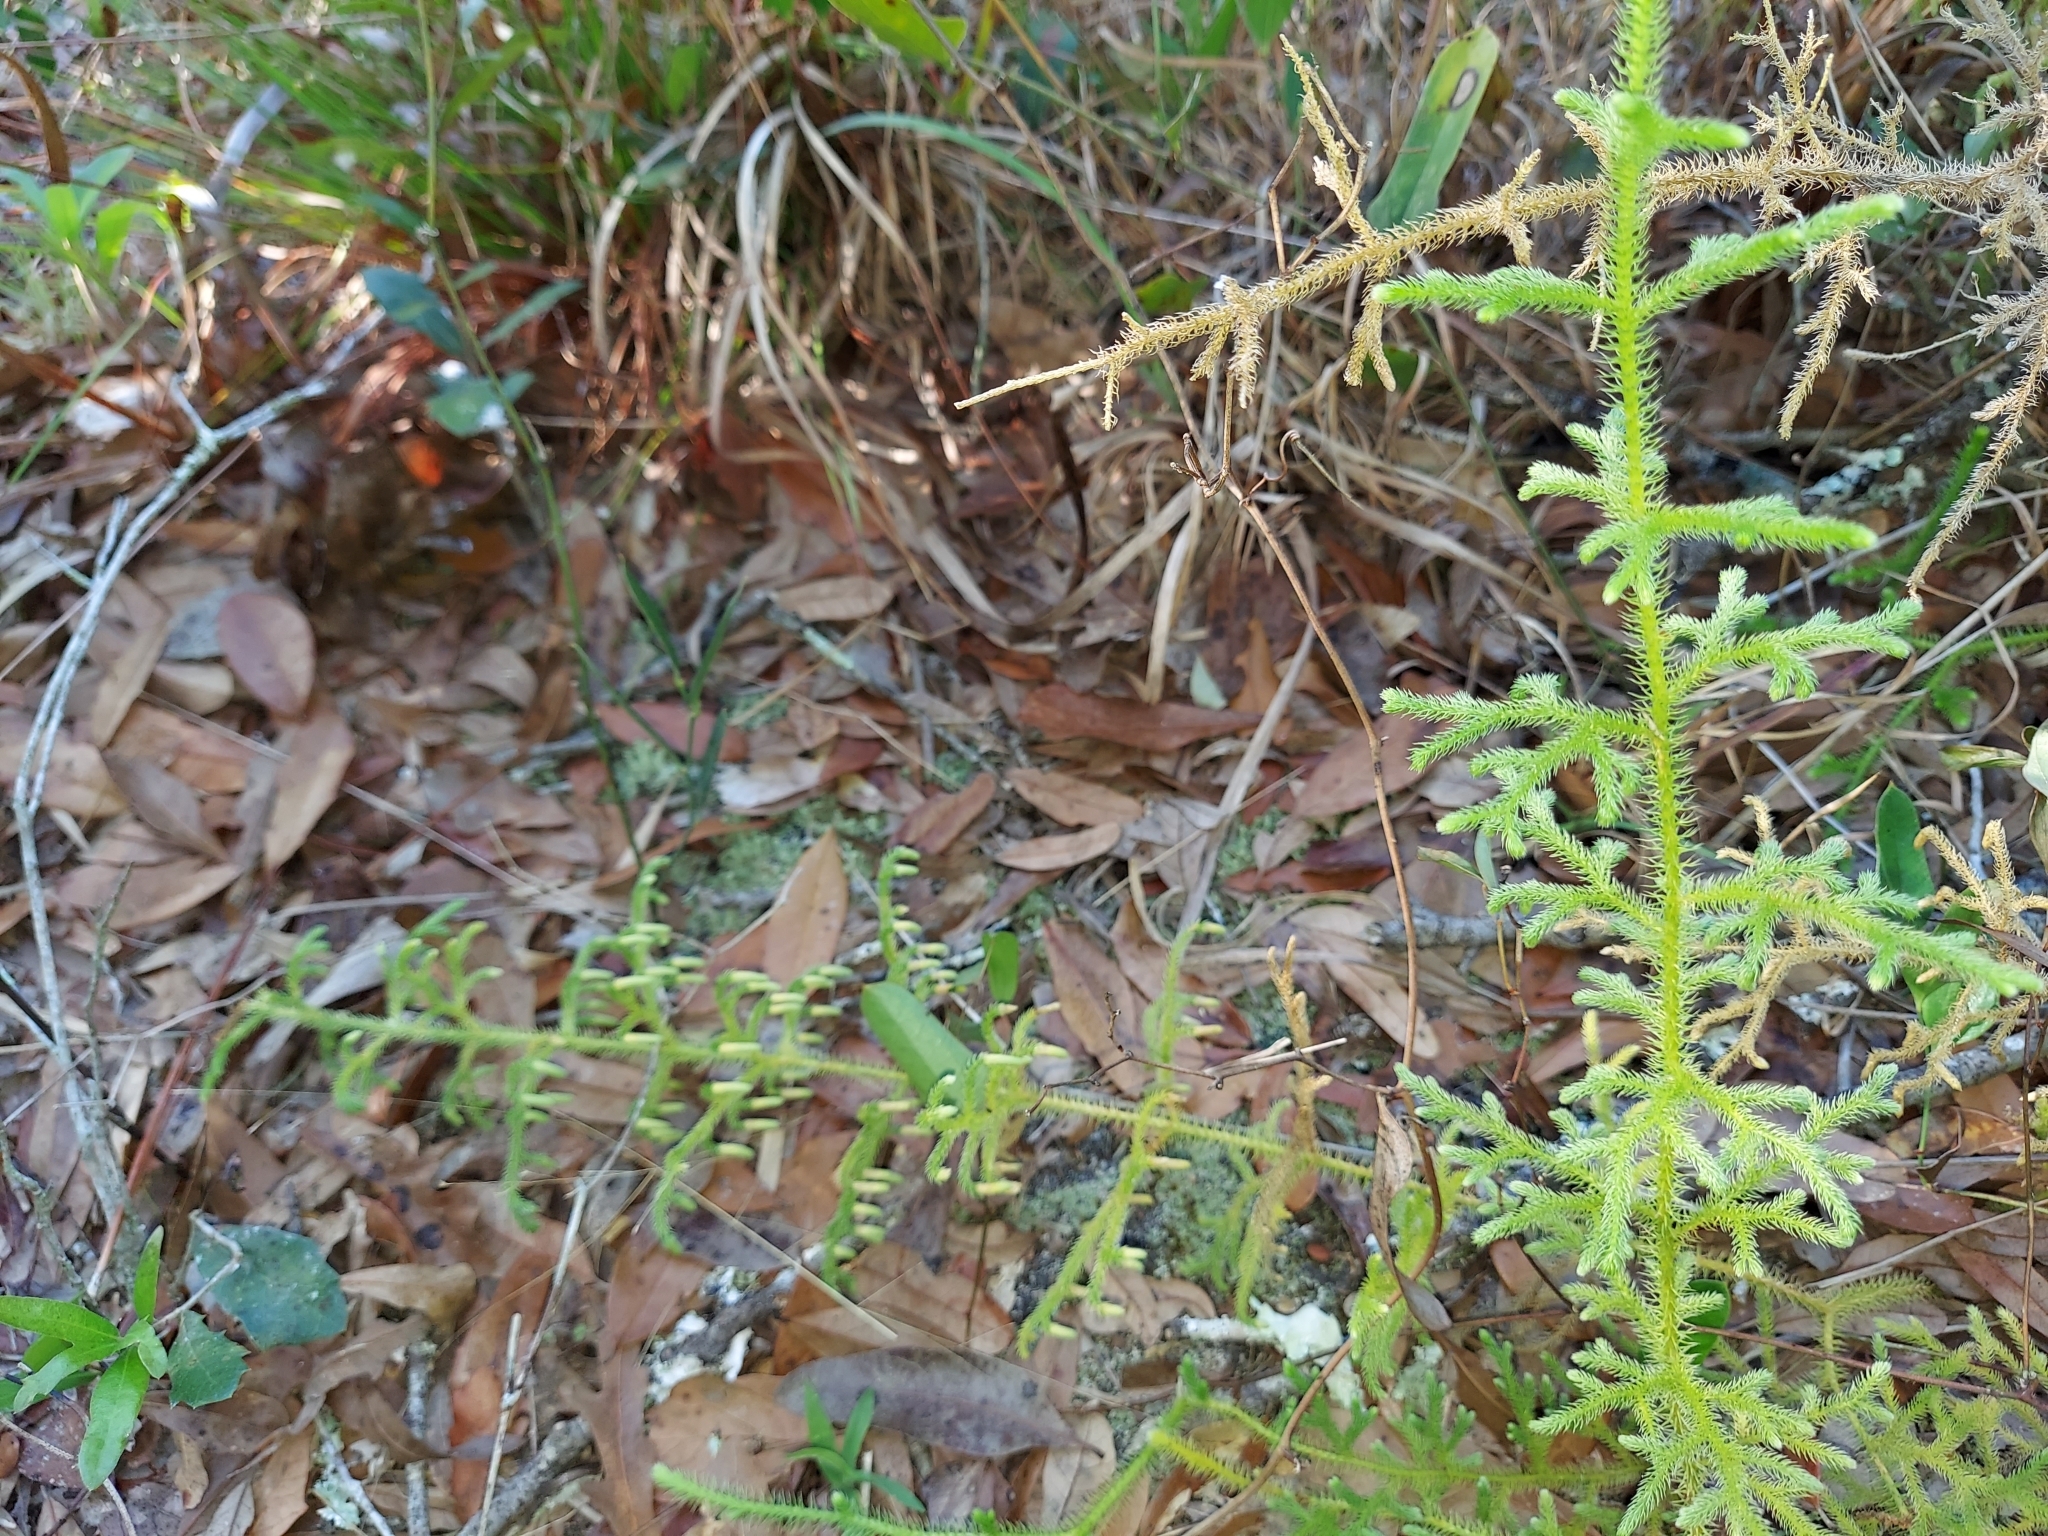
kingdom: Plantae
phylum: Tracheophyta
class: Lycopodiopsida
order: Lycopodiales
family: Lycopodiaceae
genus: Palhinhaea
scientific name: Palhinhaea cernua
